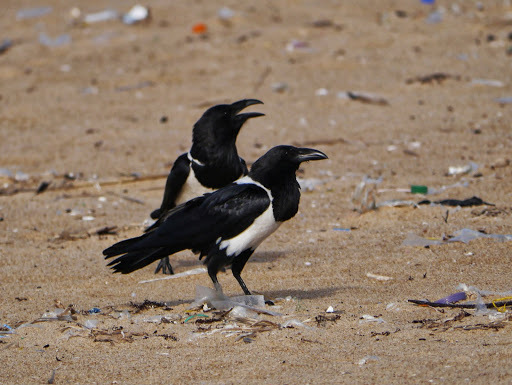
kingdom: Animalia
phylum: Chordata
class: Aves
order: Passeriformes
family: Corvidae
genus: Corvus
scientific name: Corvus albus
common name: Pied crow
